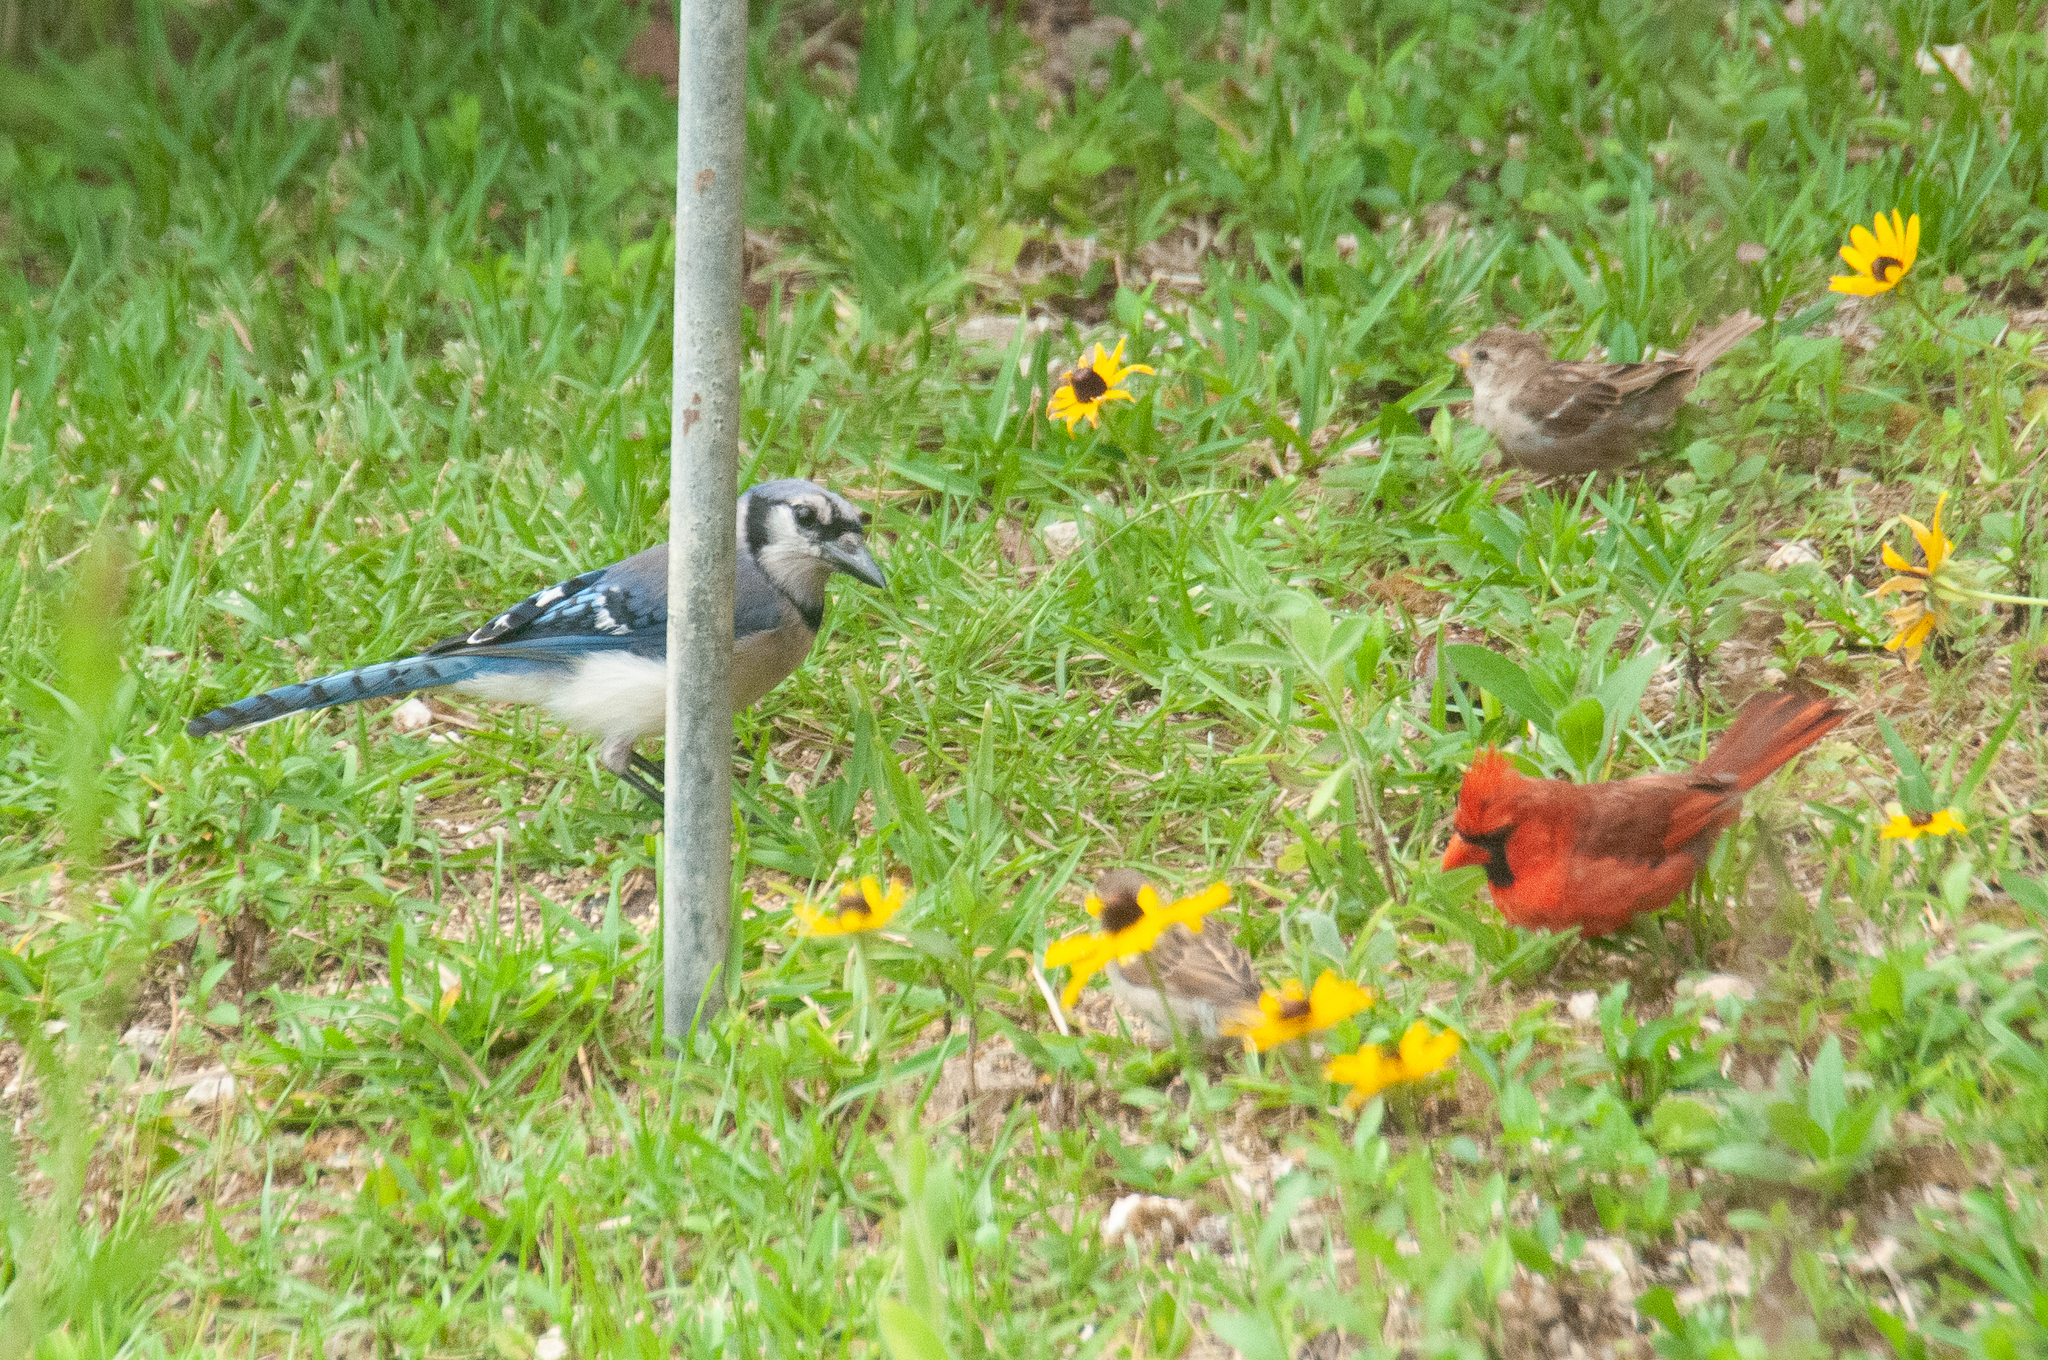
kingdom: Animalia
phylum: Chordata
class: Aves
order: Passeriformes
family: Cardinalidae
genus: Cardinalis
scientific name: Cardinalis cardinalis
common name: Northern cardinal
